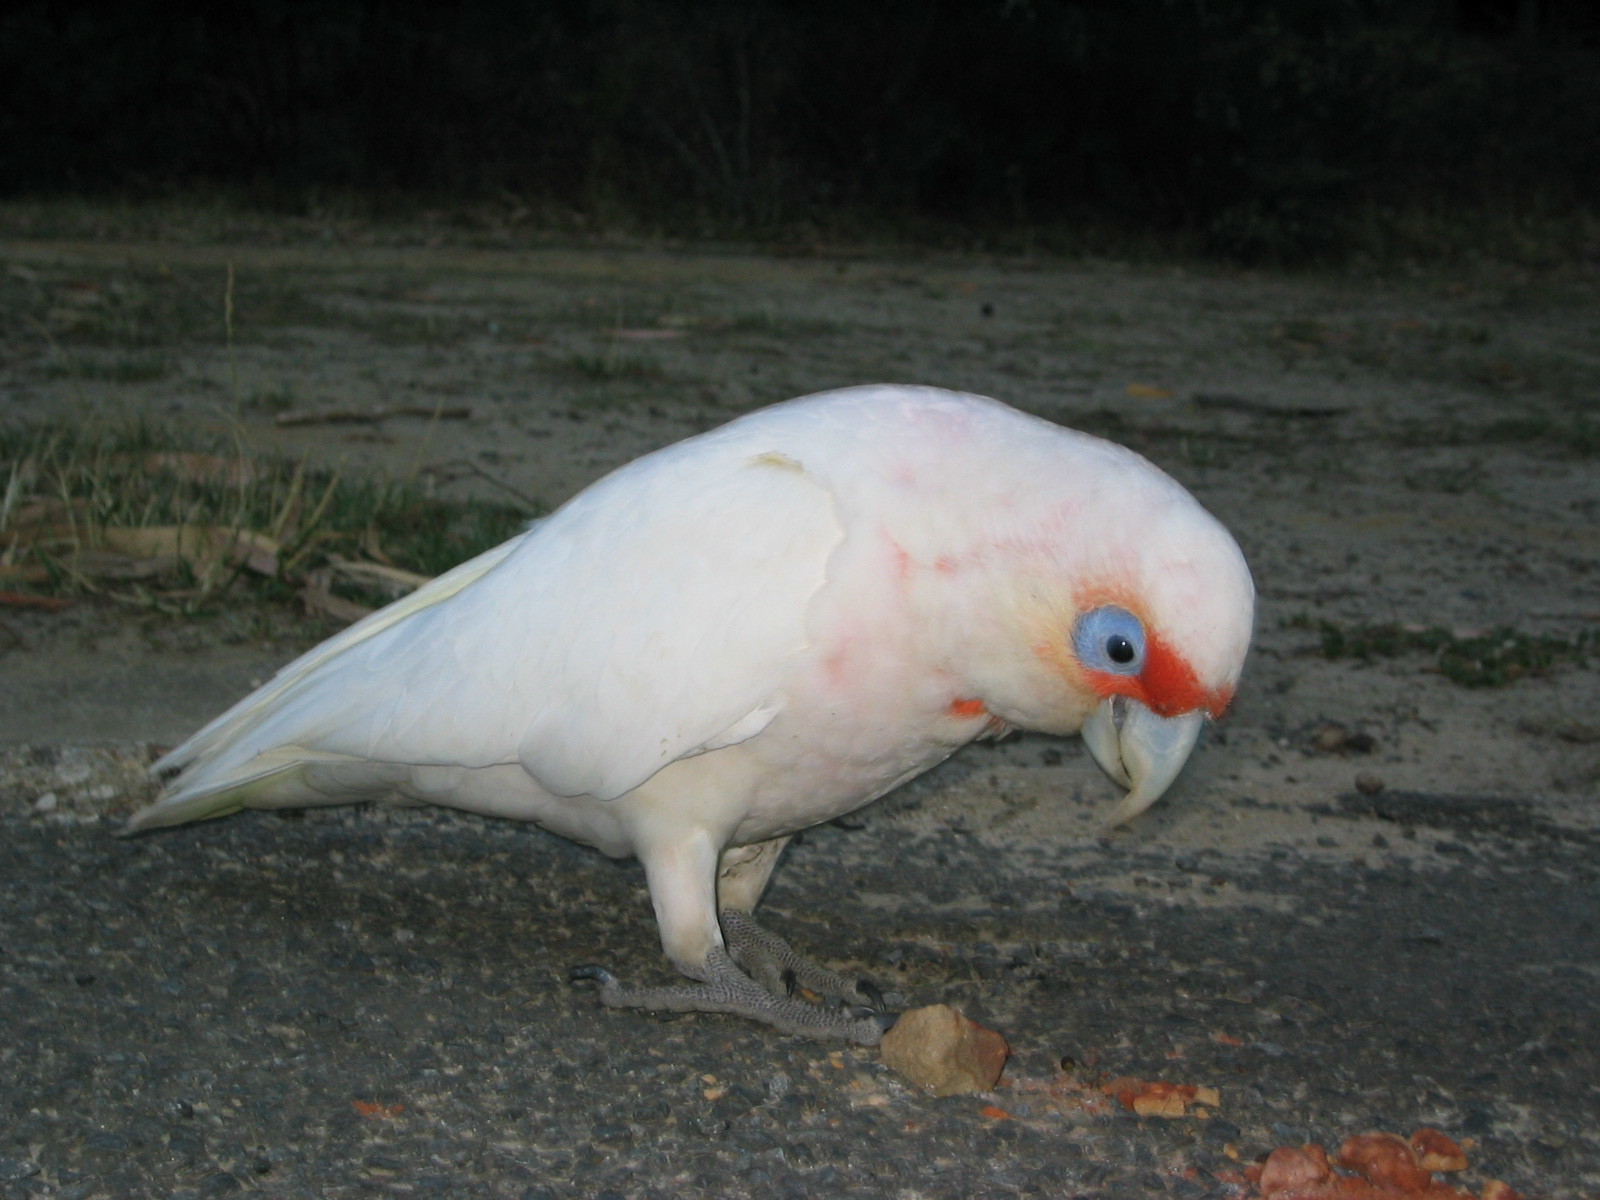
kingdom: Animalia
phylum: Chordata
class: Aves
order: Psittaciformes
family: Psittacidae
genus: Cacatua
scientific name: Cacatua tenuirostris
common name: Long-billed corella
